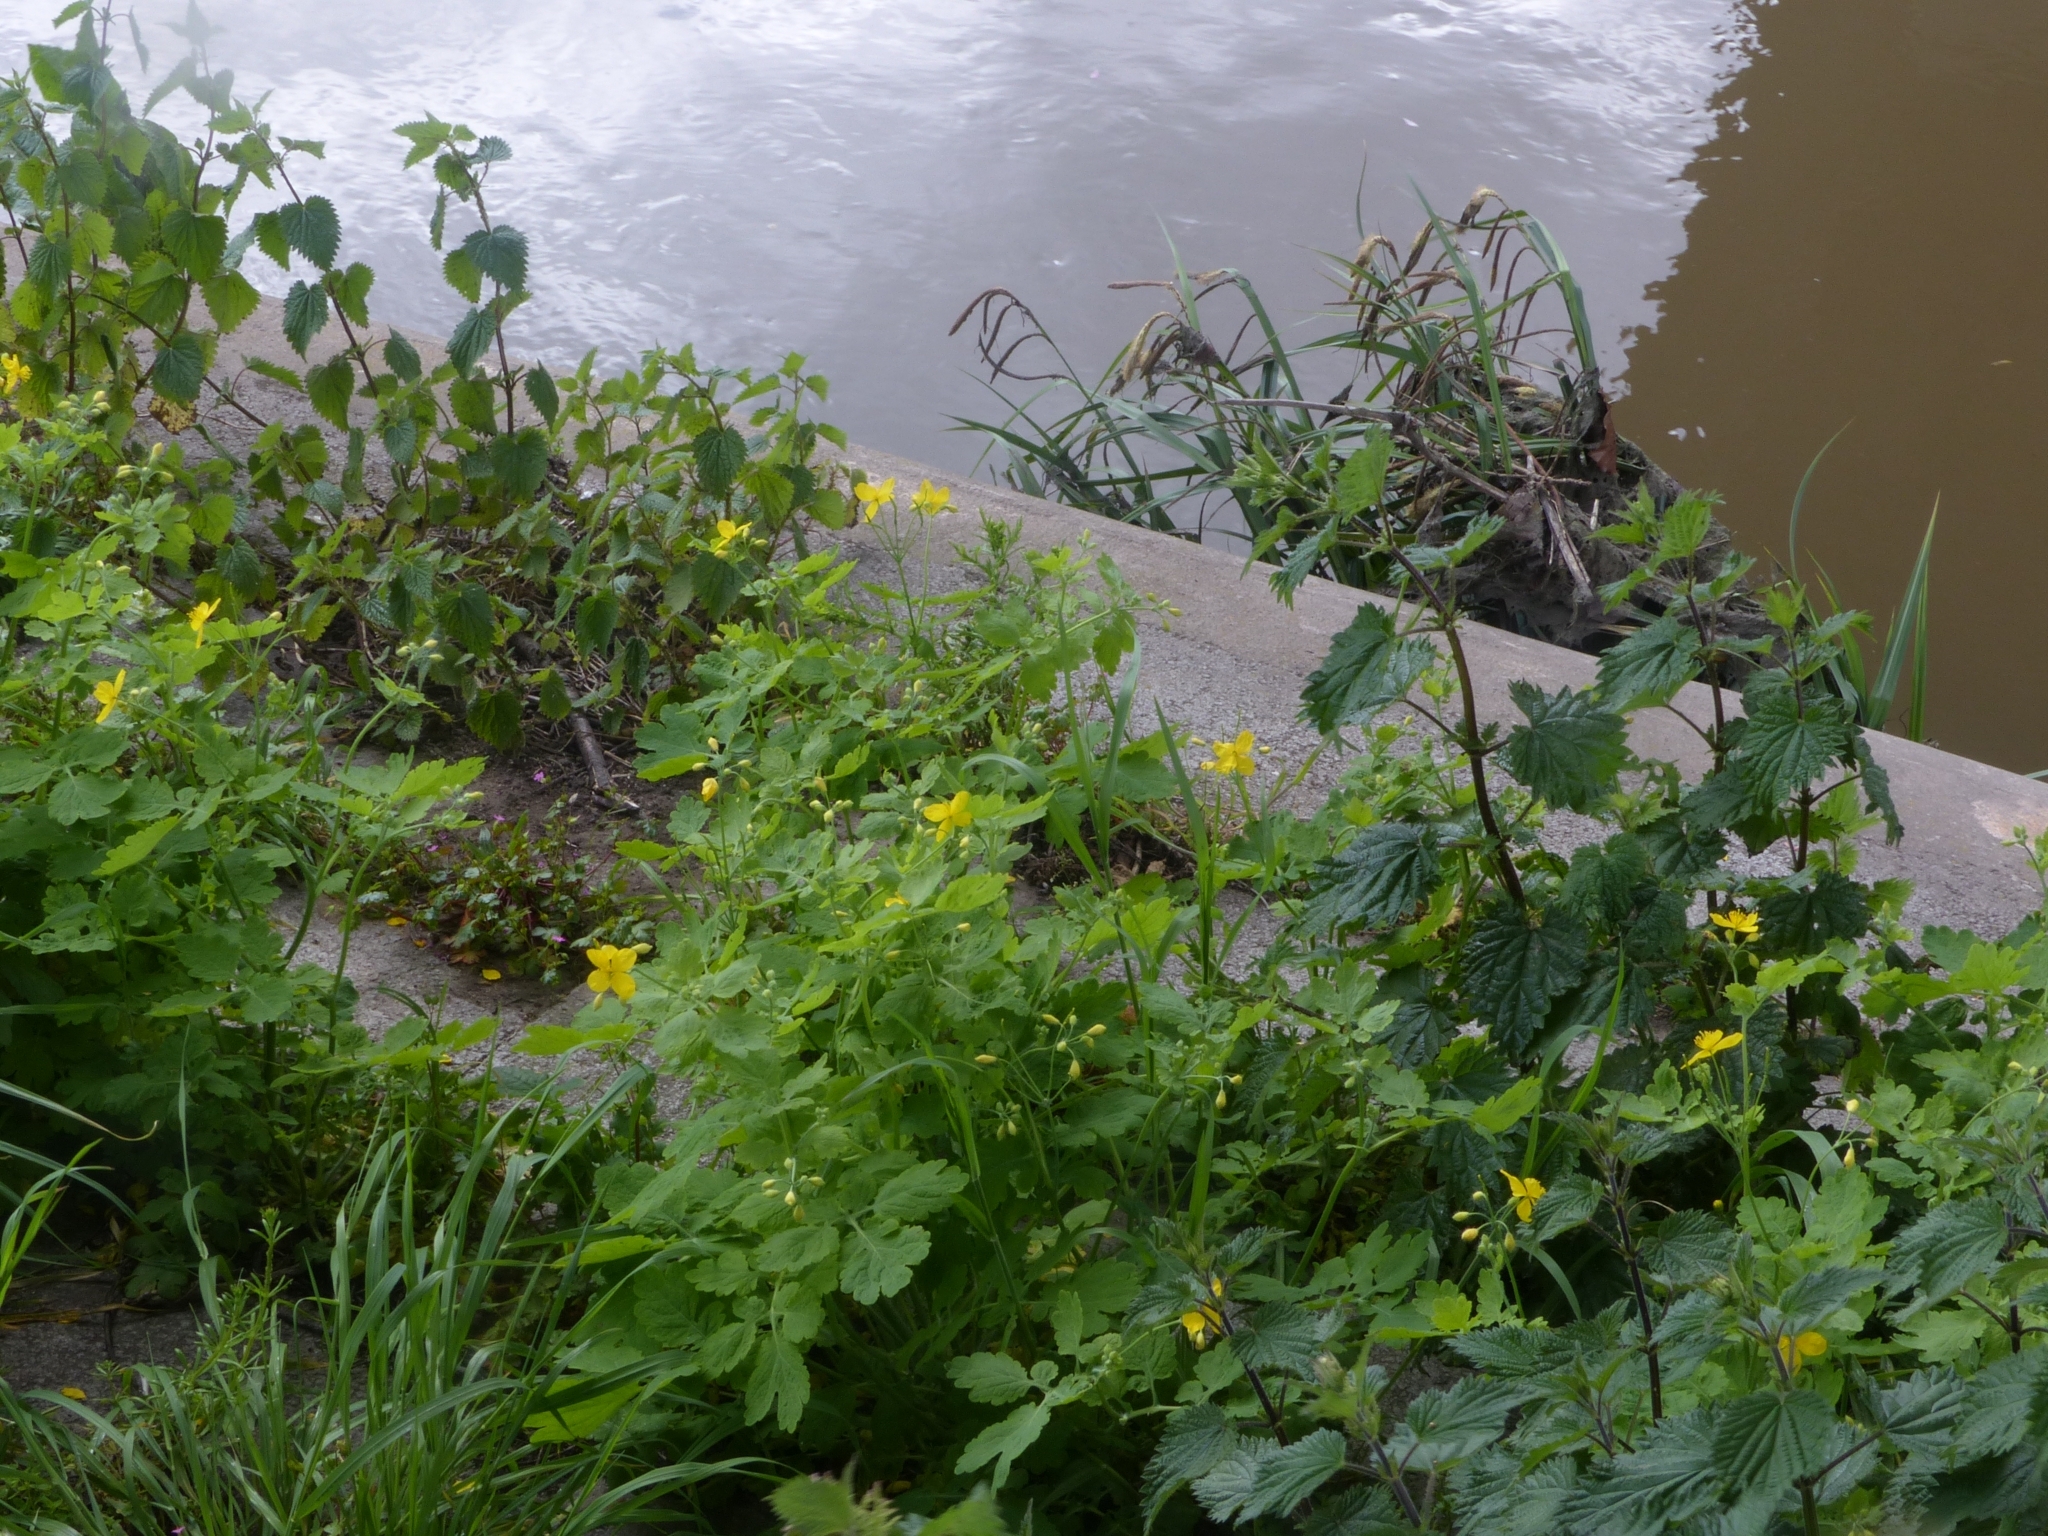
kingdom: Plantae
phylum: Tracheophyta
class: Magnoliopsida
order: Ranunculales
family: Papaveraceae
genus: Chelidonium
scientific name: Chelidonium majus
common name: Greater celandine
